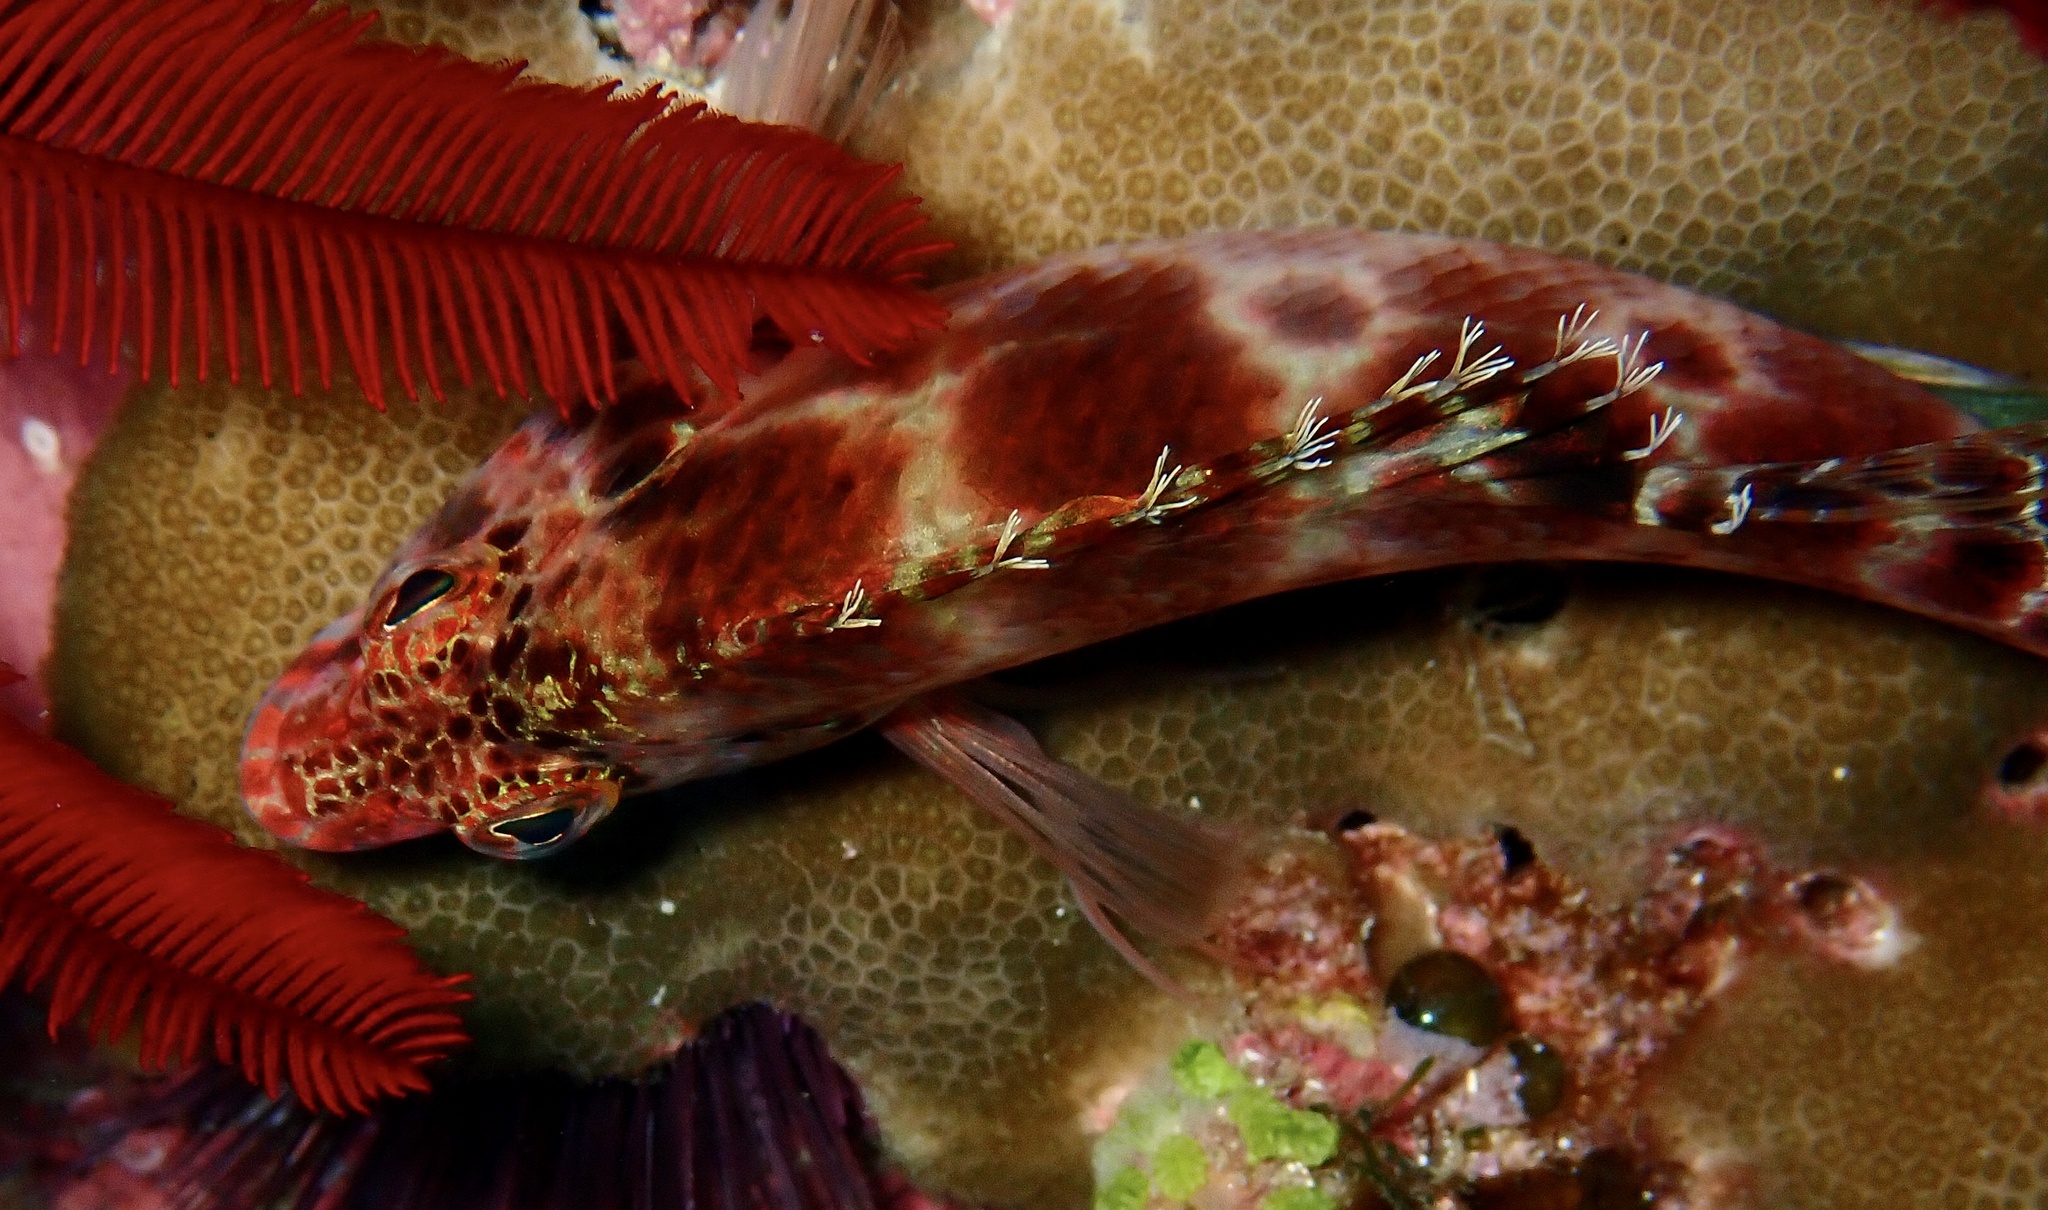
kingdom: Animalia
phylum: Chordata
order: Perciformes
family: Cirrhitidae
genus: Cirrhitichthys
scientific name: Cirrhitichthys aprinus
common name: Blotched hawkfish
